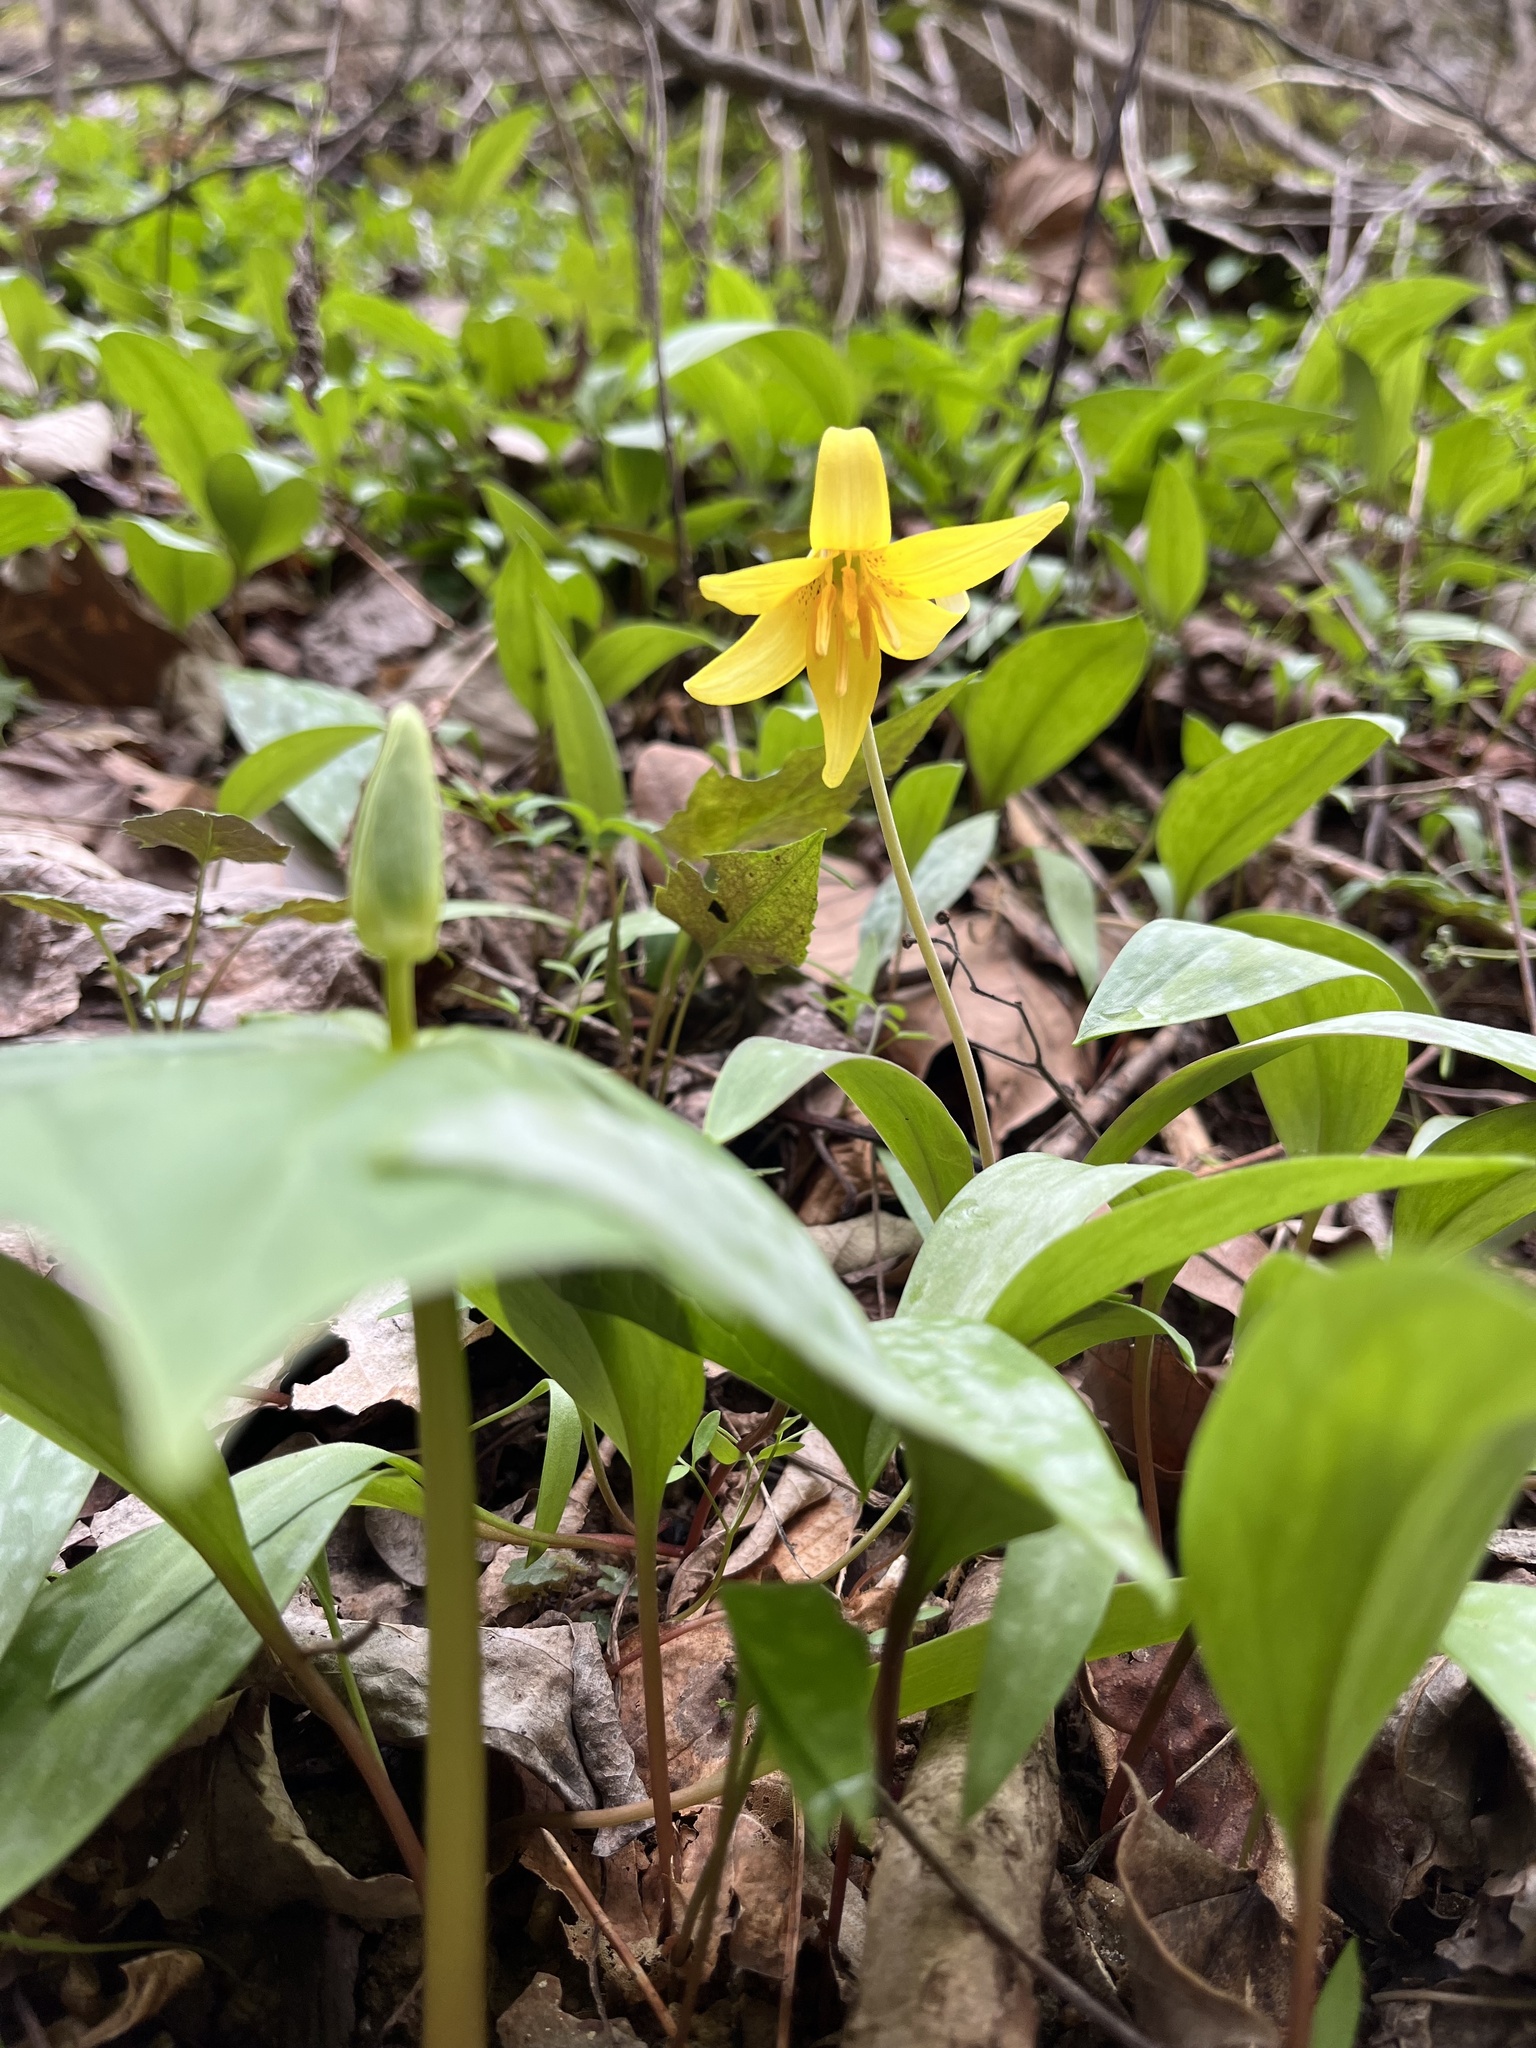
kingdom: Plantae
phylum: Tracheophyta
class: Liliopsida
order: Liliales
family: Liliaceae
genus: Erythronium
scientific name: Erythronium americanum
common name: Yellow adder's-tongue
